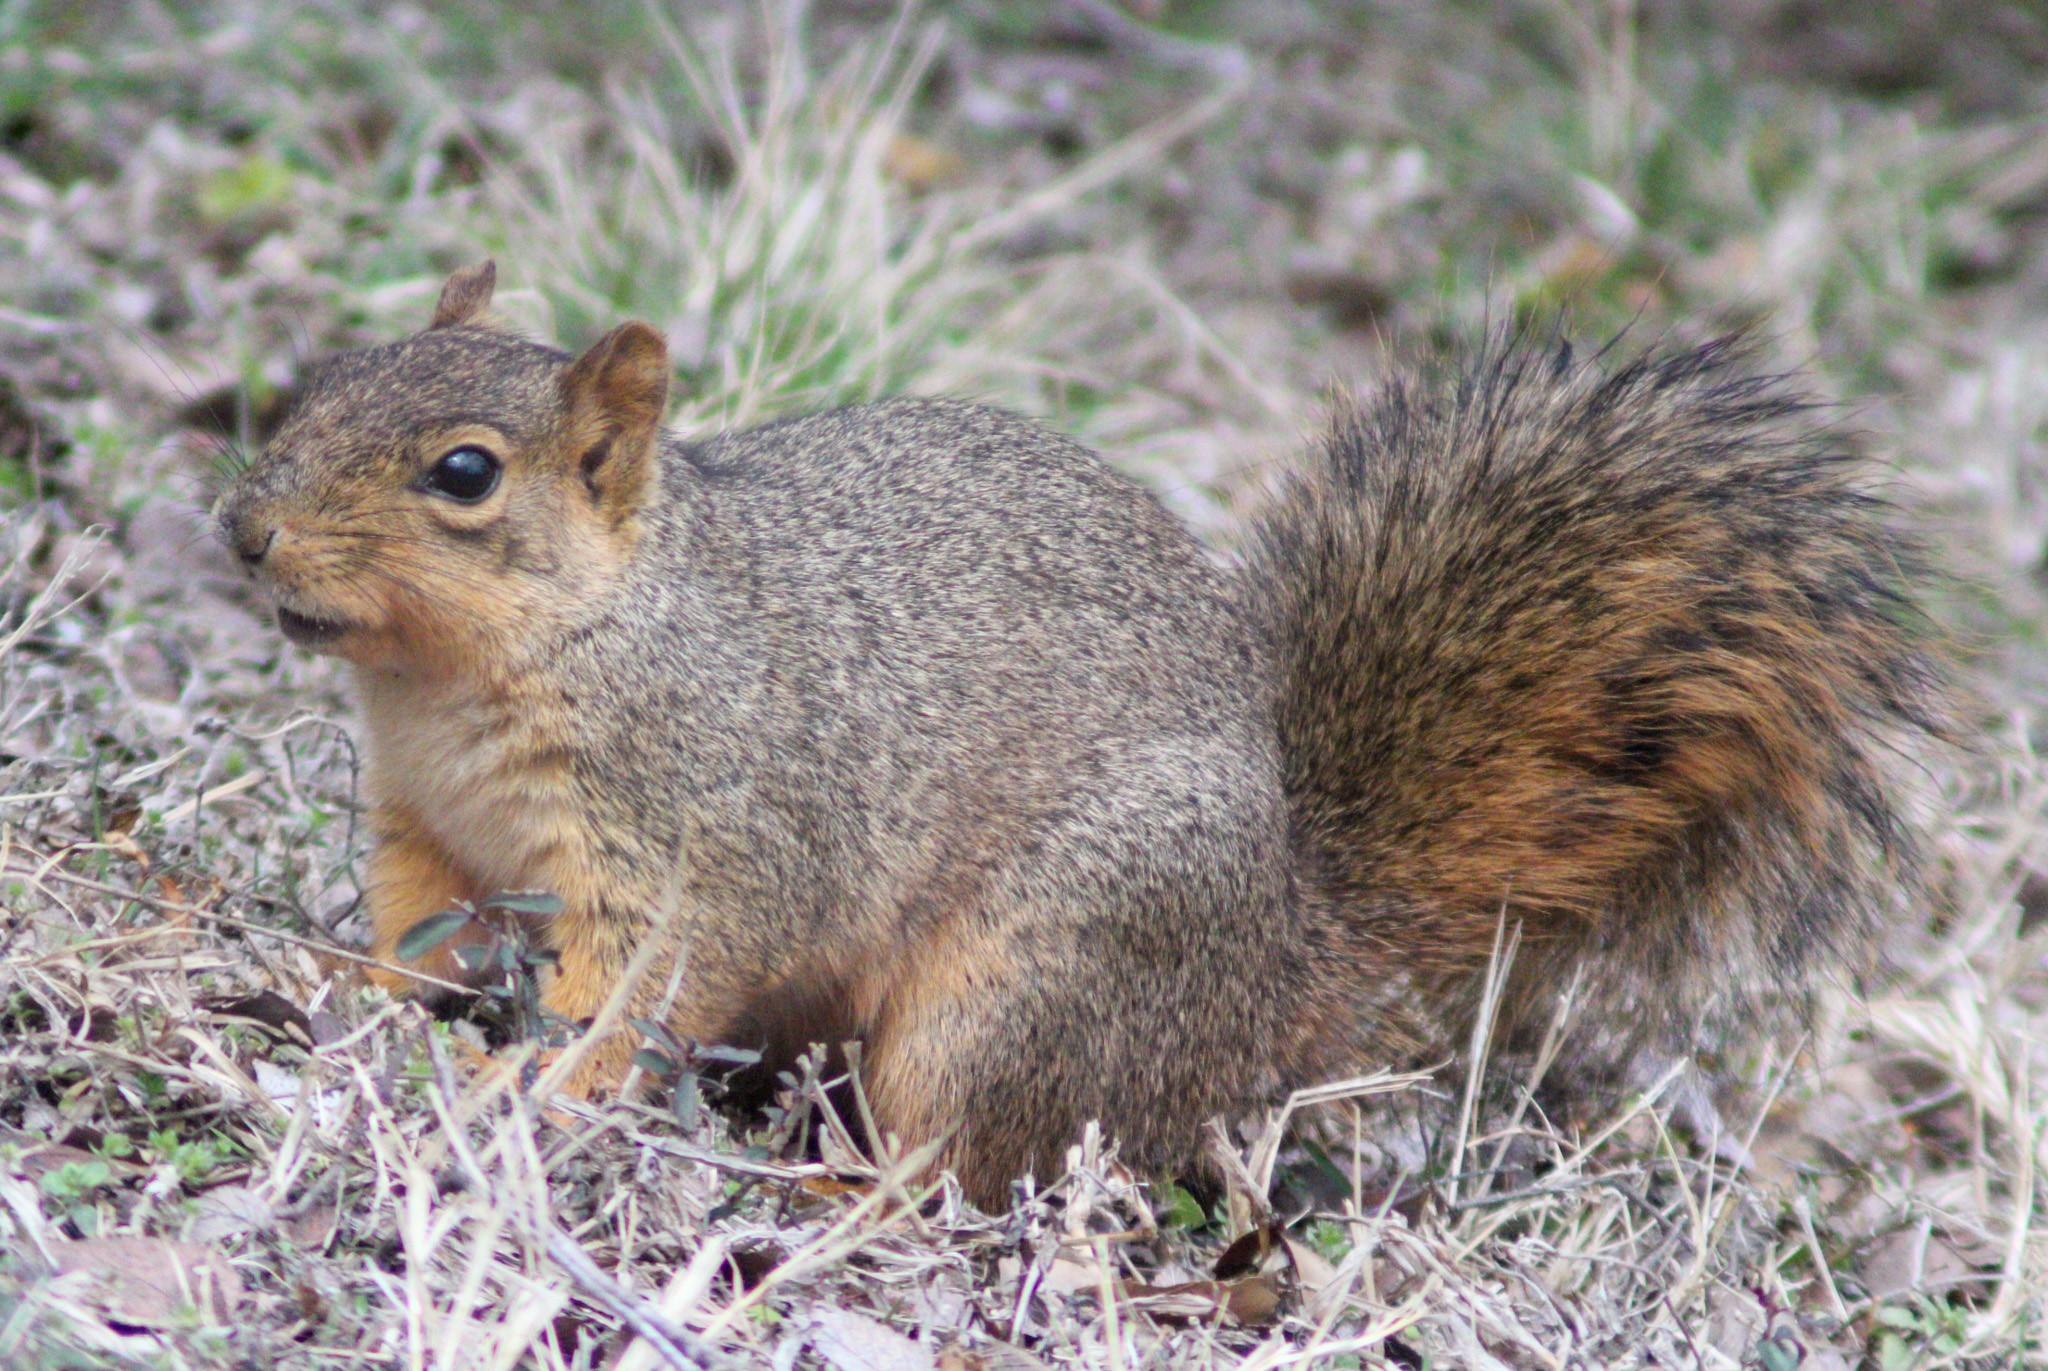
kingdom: Animalia
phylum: Chordata
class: Mammalia
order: Rodentia
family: Sciuridae
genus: Sciurus
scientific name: Sciurus niger
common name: Fox squirrel
